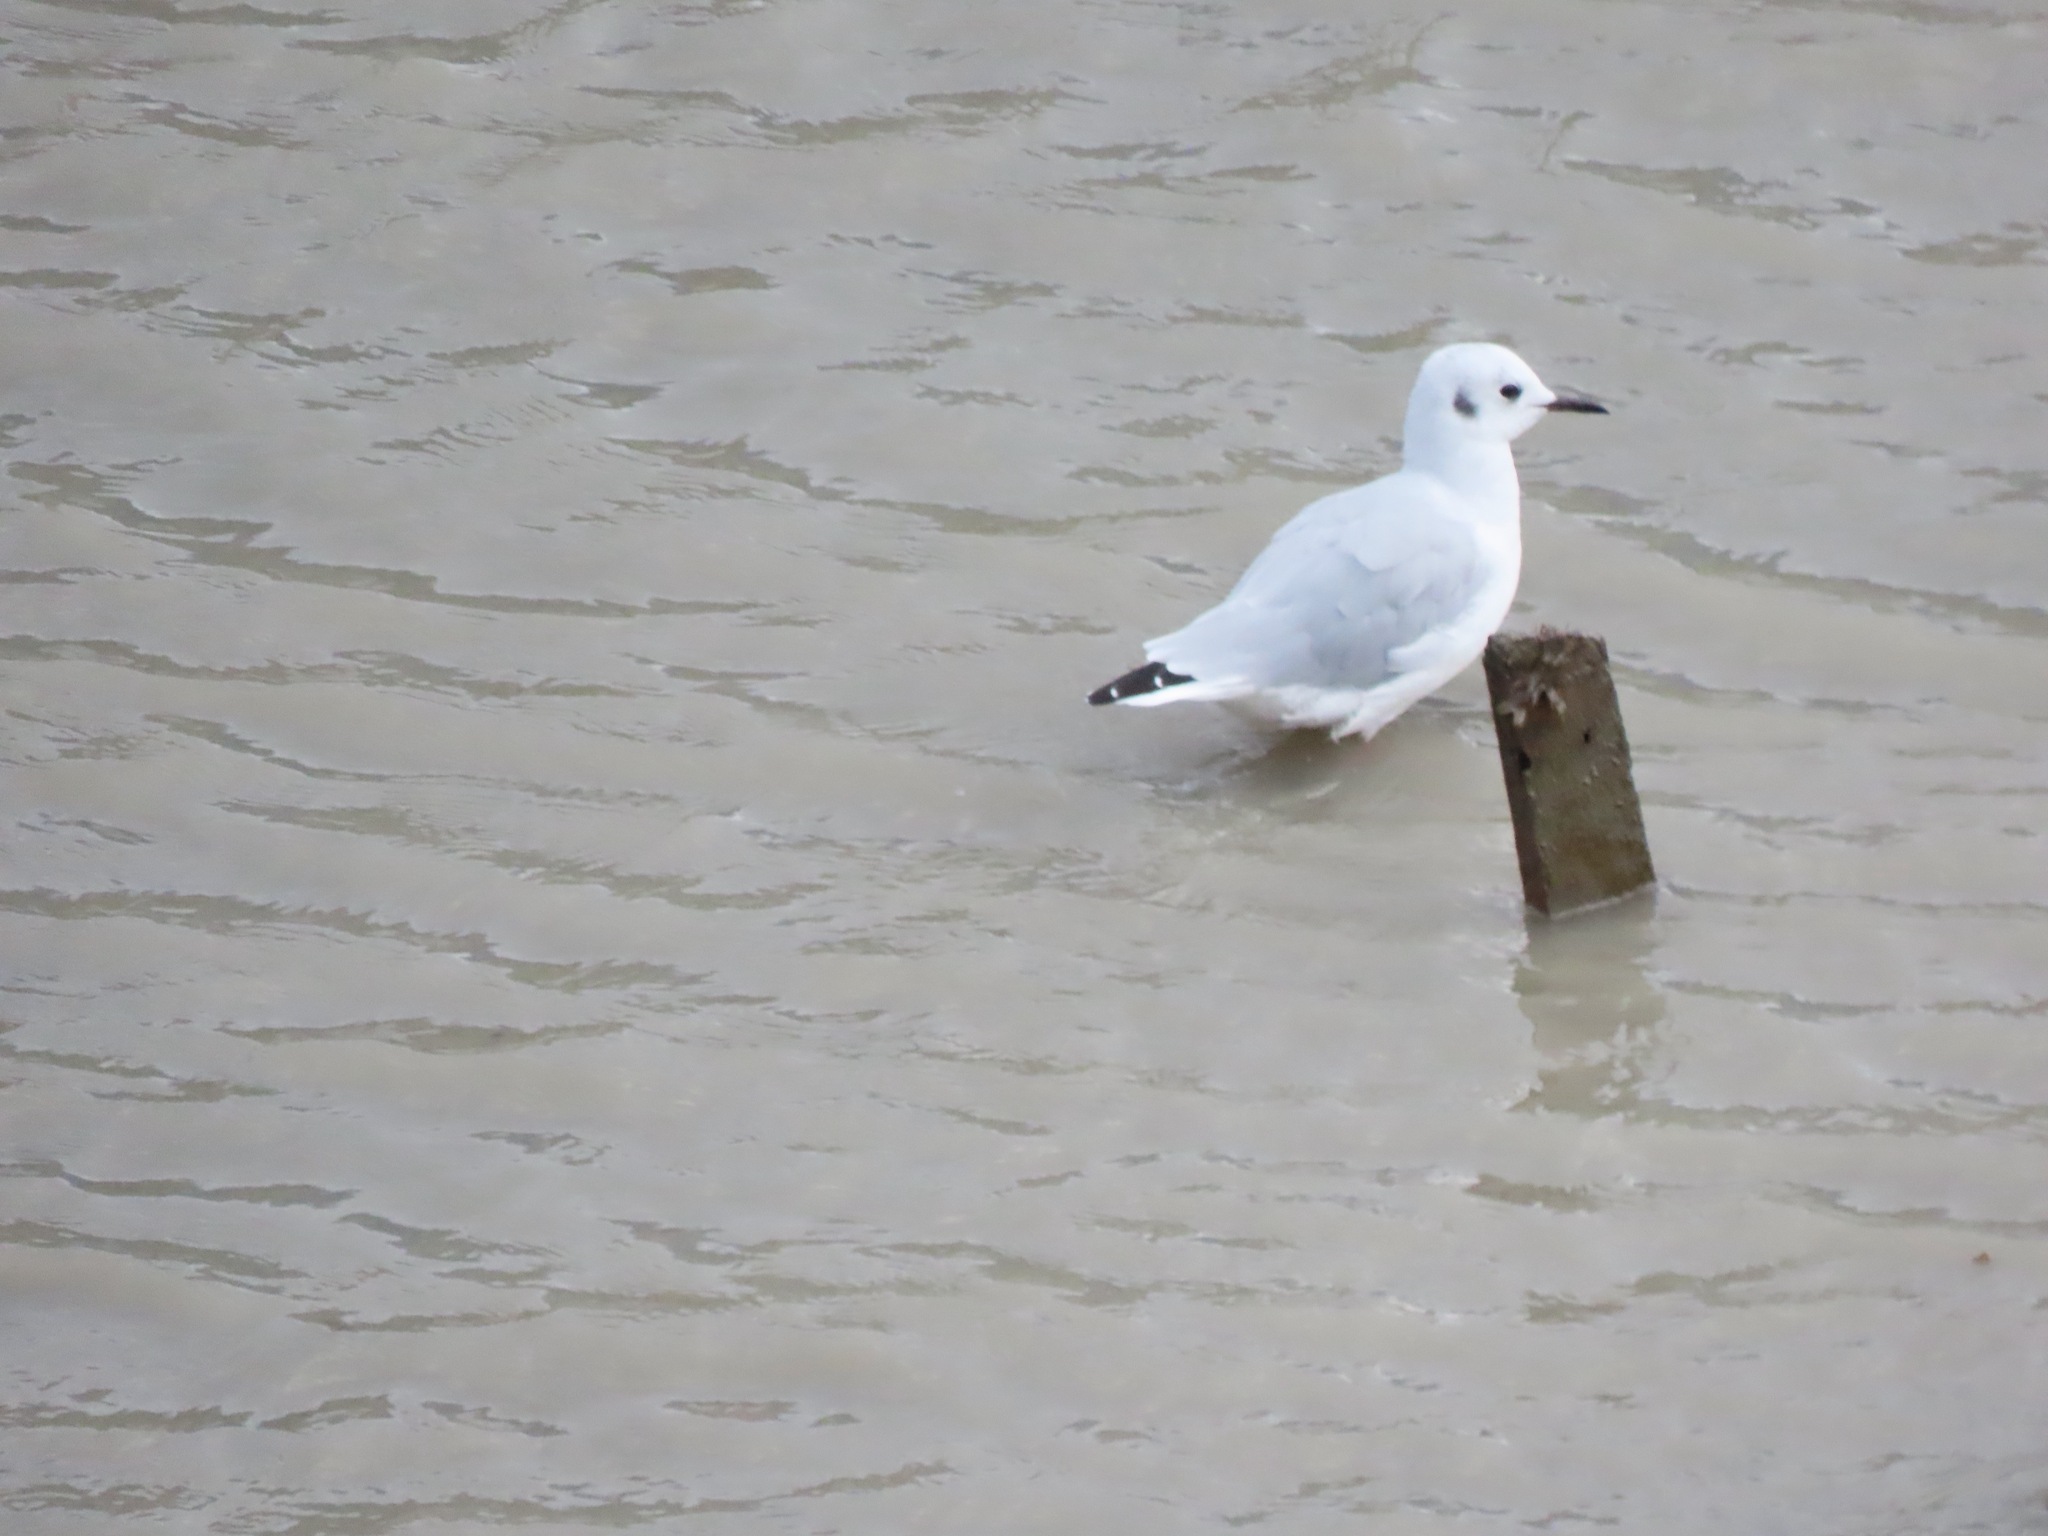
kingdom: Animalia
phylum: Chordata
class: Aves
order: Charadriiformes
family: Laridae
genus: Chroicocephalus
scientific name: Chroicocephalus philadelphia
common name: Bonaparte's gull
